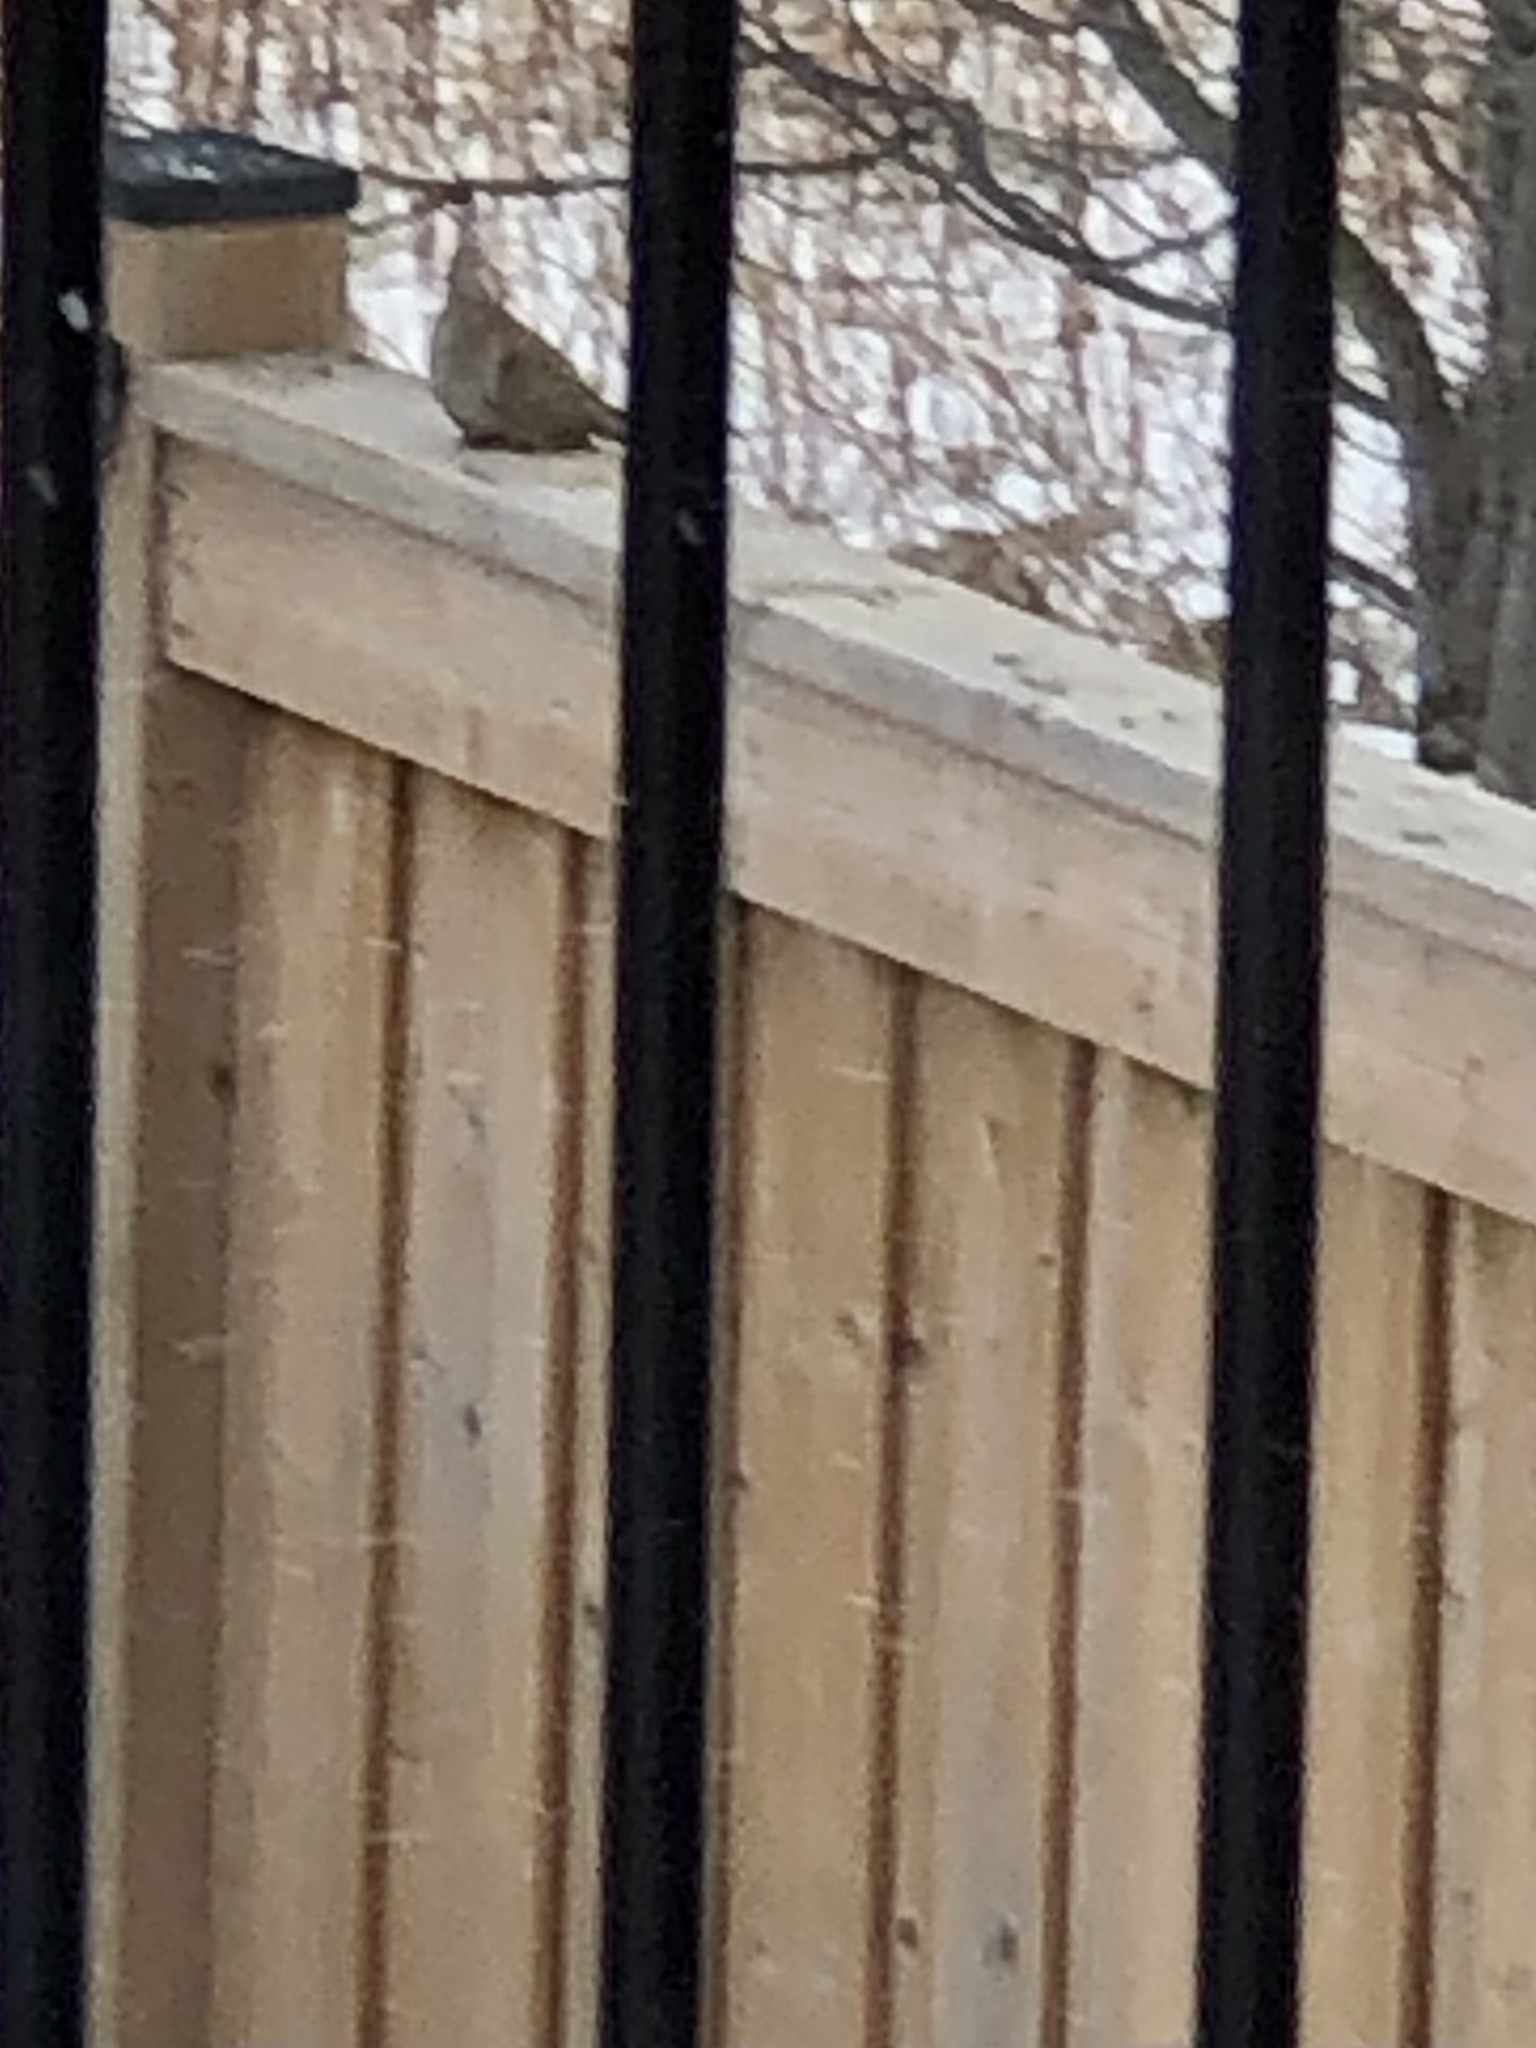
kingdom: Animalia
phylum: Chordata
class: Aves
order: Columbiformes
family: Columbidae
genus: Zenaida
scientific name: Zenaida macroura
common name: Mourning dove
